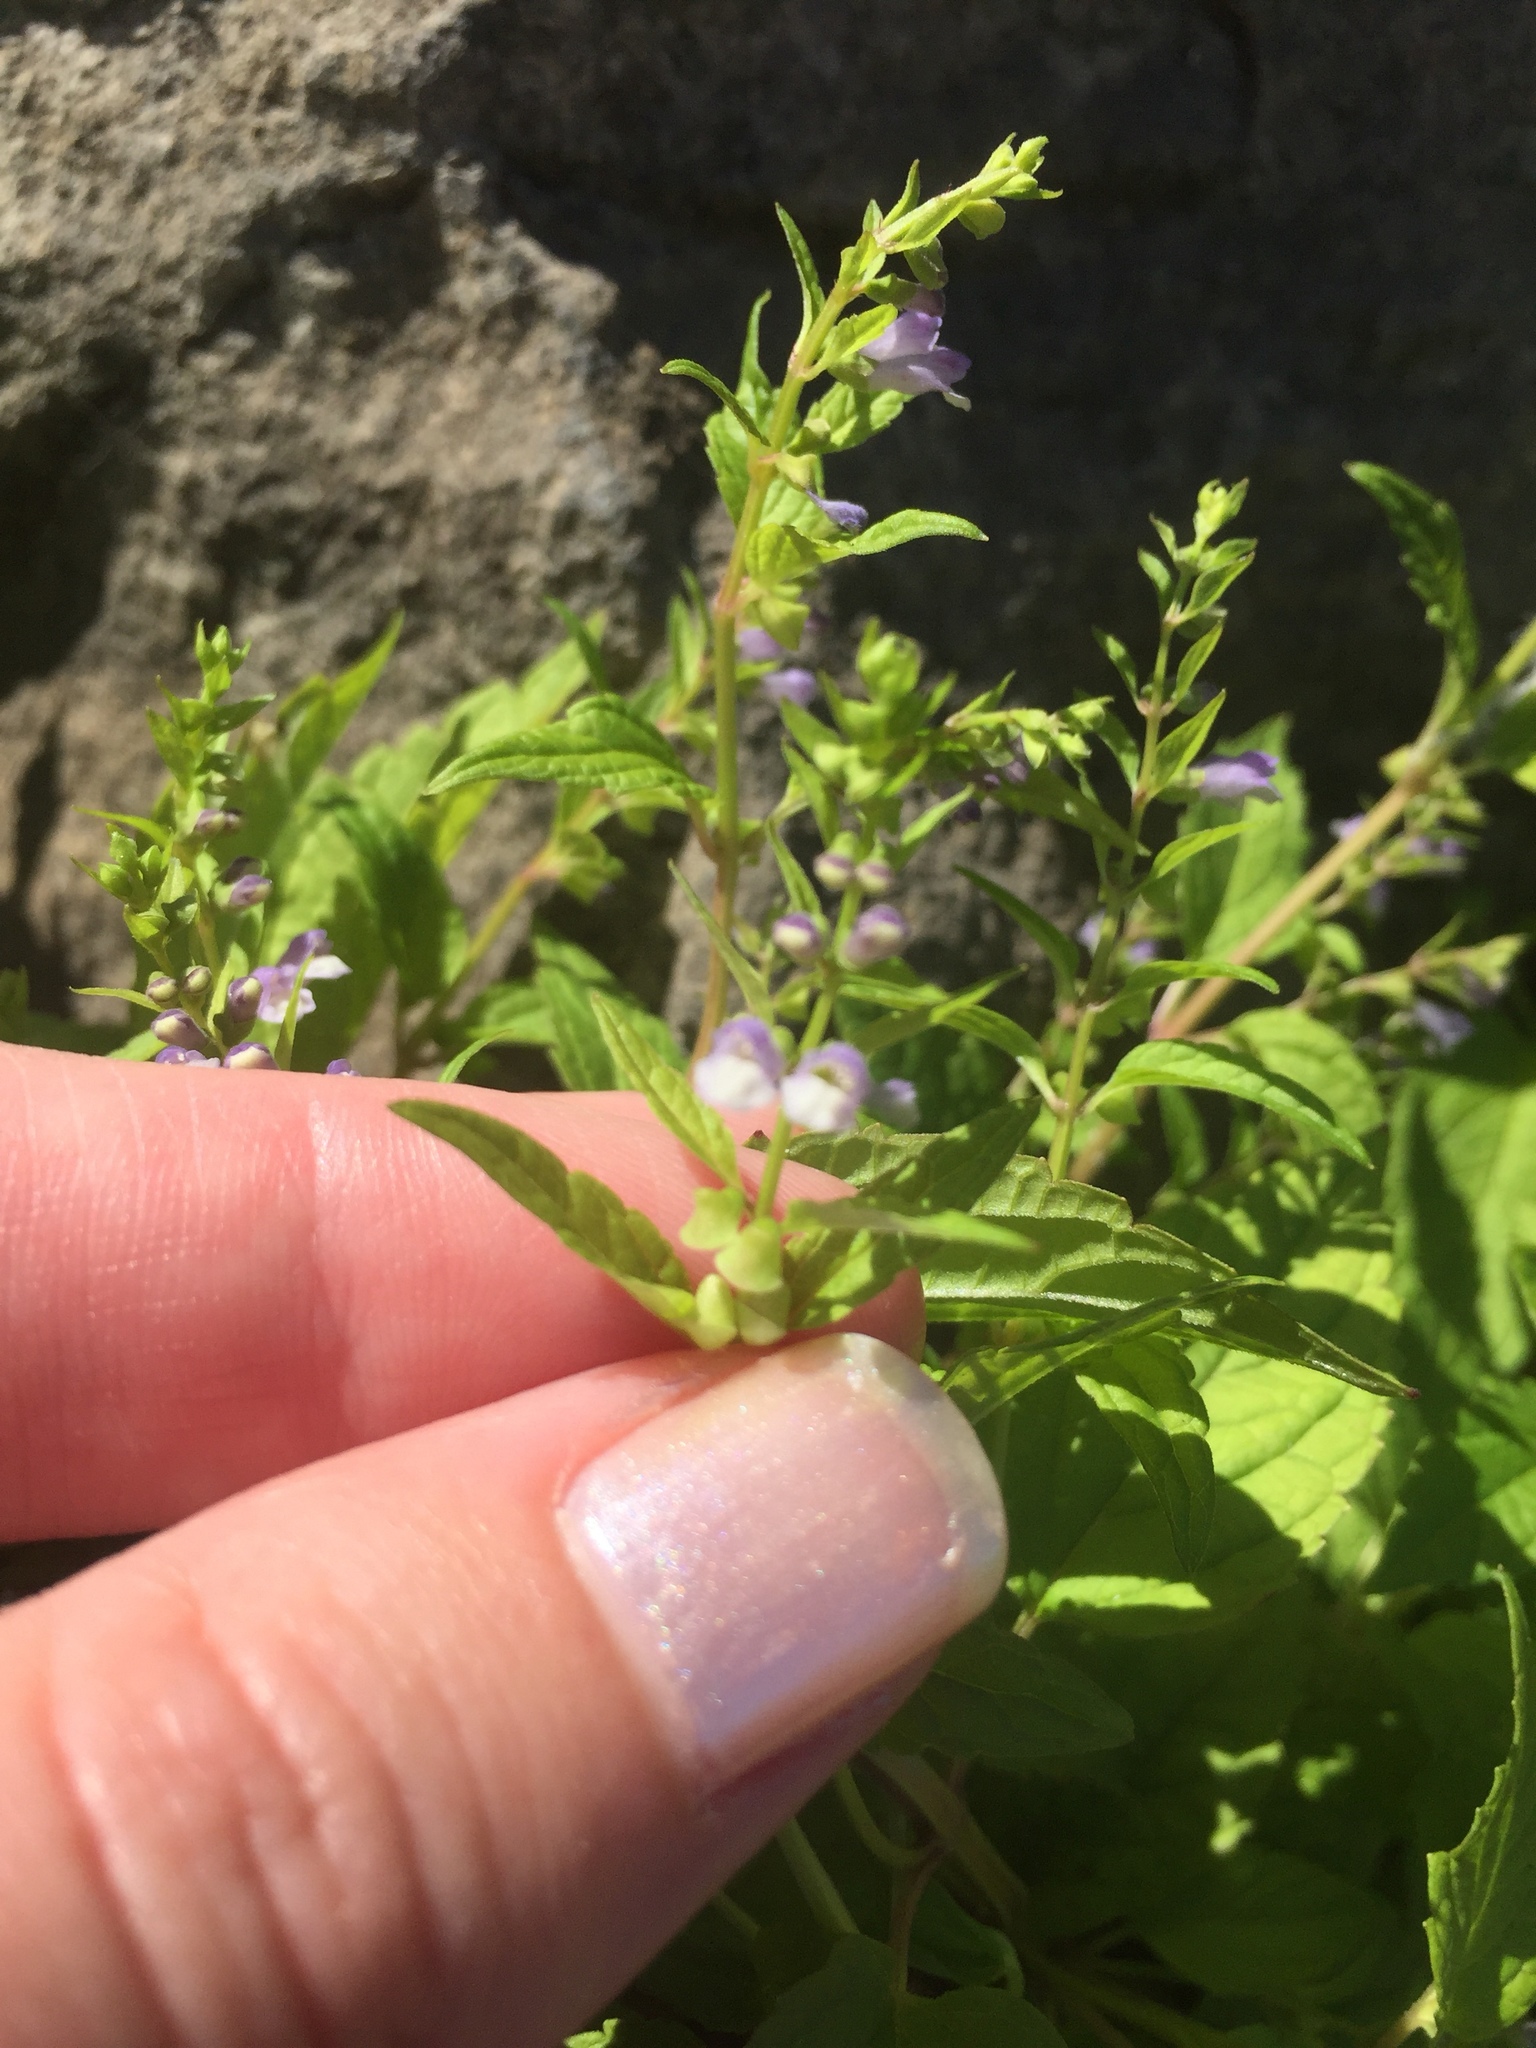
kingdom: Plantae
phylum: Tracheophyta
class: Magnoliopsida
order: Lamiales
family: Lamiaceae
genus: Scutellaria
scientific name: Scutellaria lateriflora
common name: Blue skullcap
